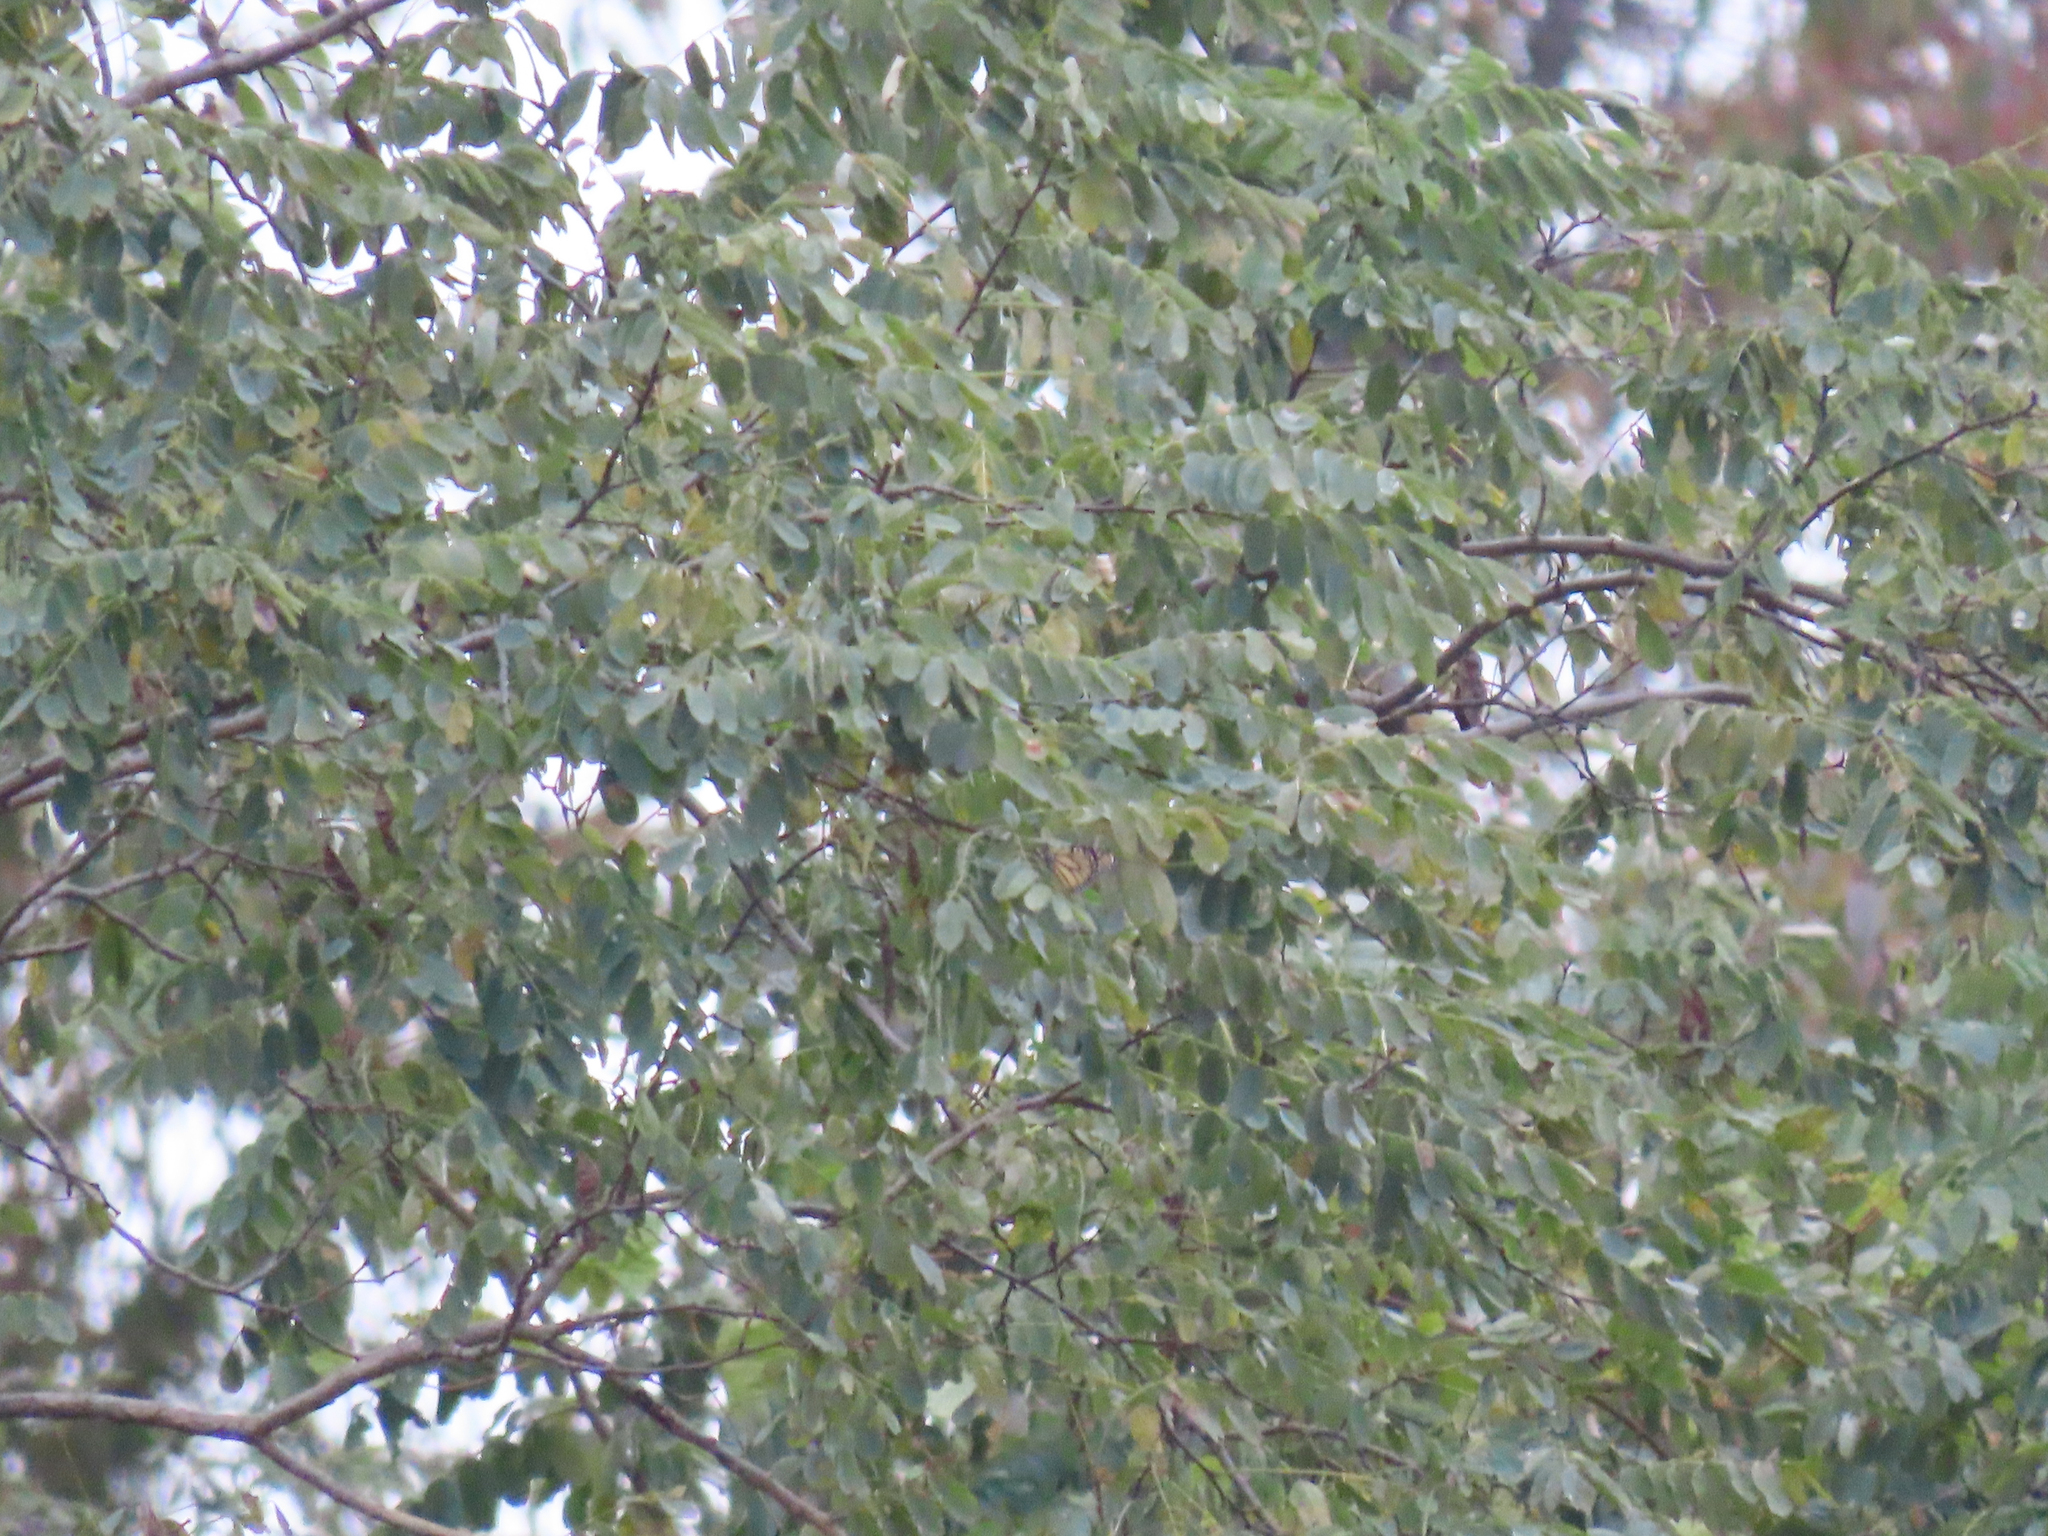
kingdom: Animalia
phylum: Arthropoda
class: Insecta
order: Lepidoptera
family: Nymphalidae
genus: Danaus
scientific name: Danaus plexippus
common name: Monarch
